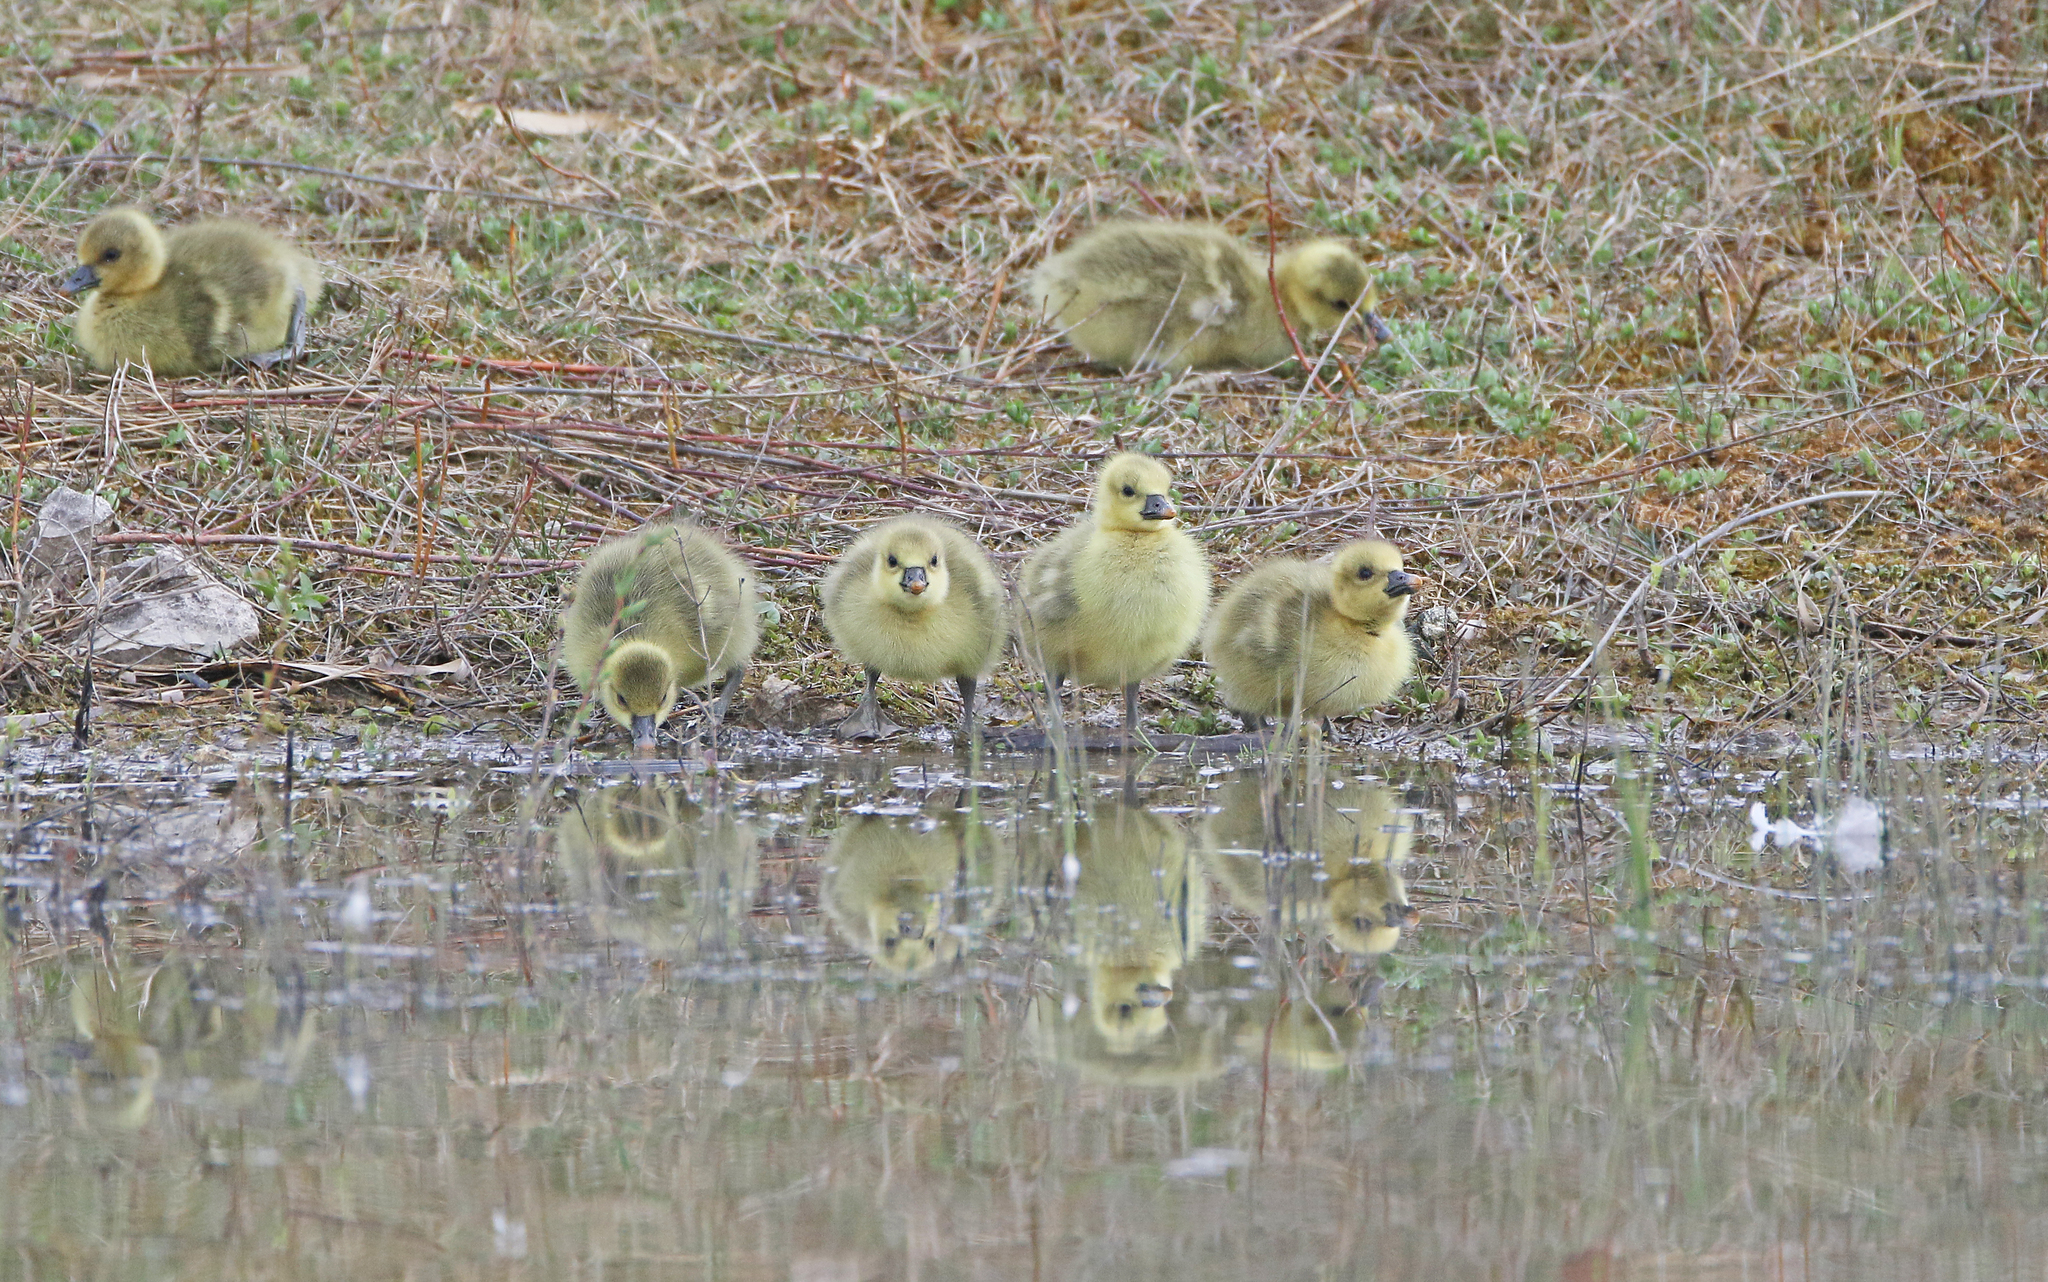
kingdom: Animalia
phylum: Chordata
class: Aves
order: Anseriformes
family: Anatidae
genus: Anser
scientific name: Anser anser
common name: Greylag goose
